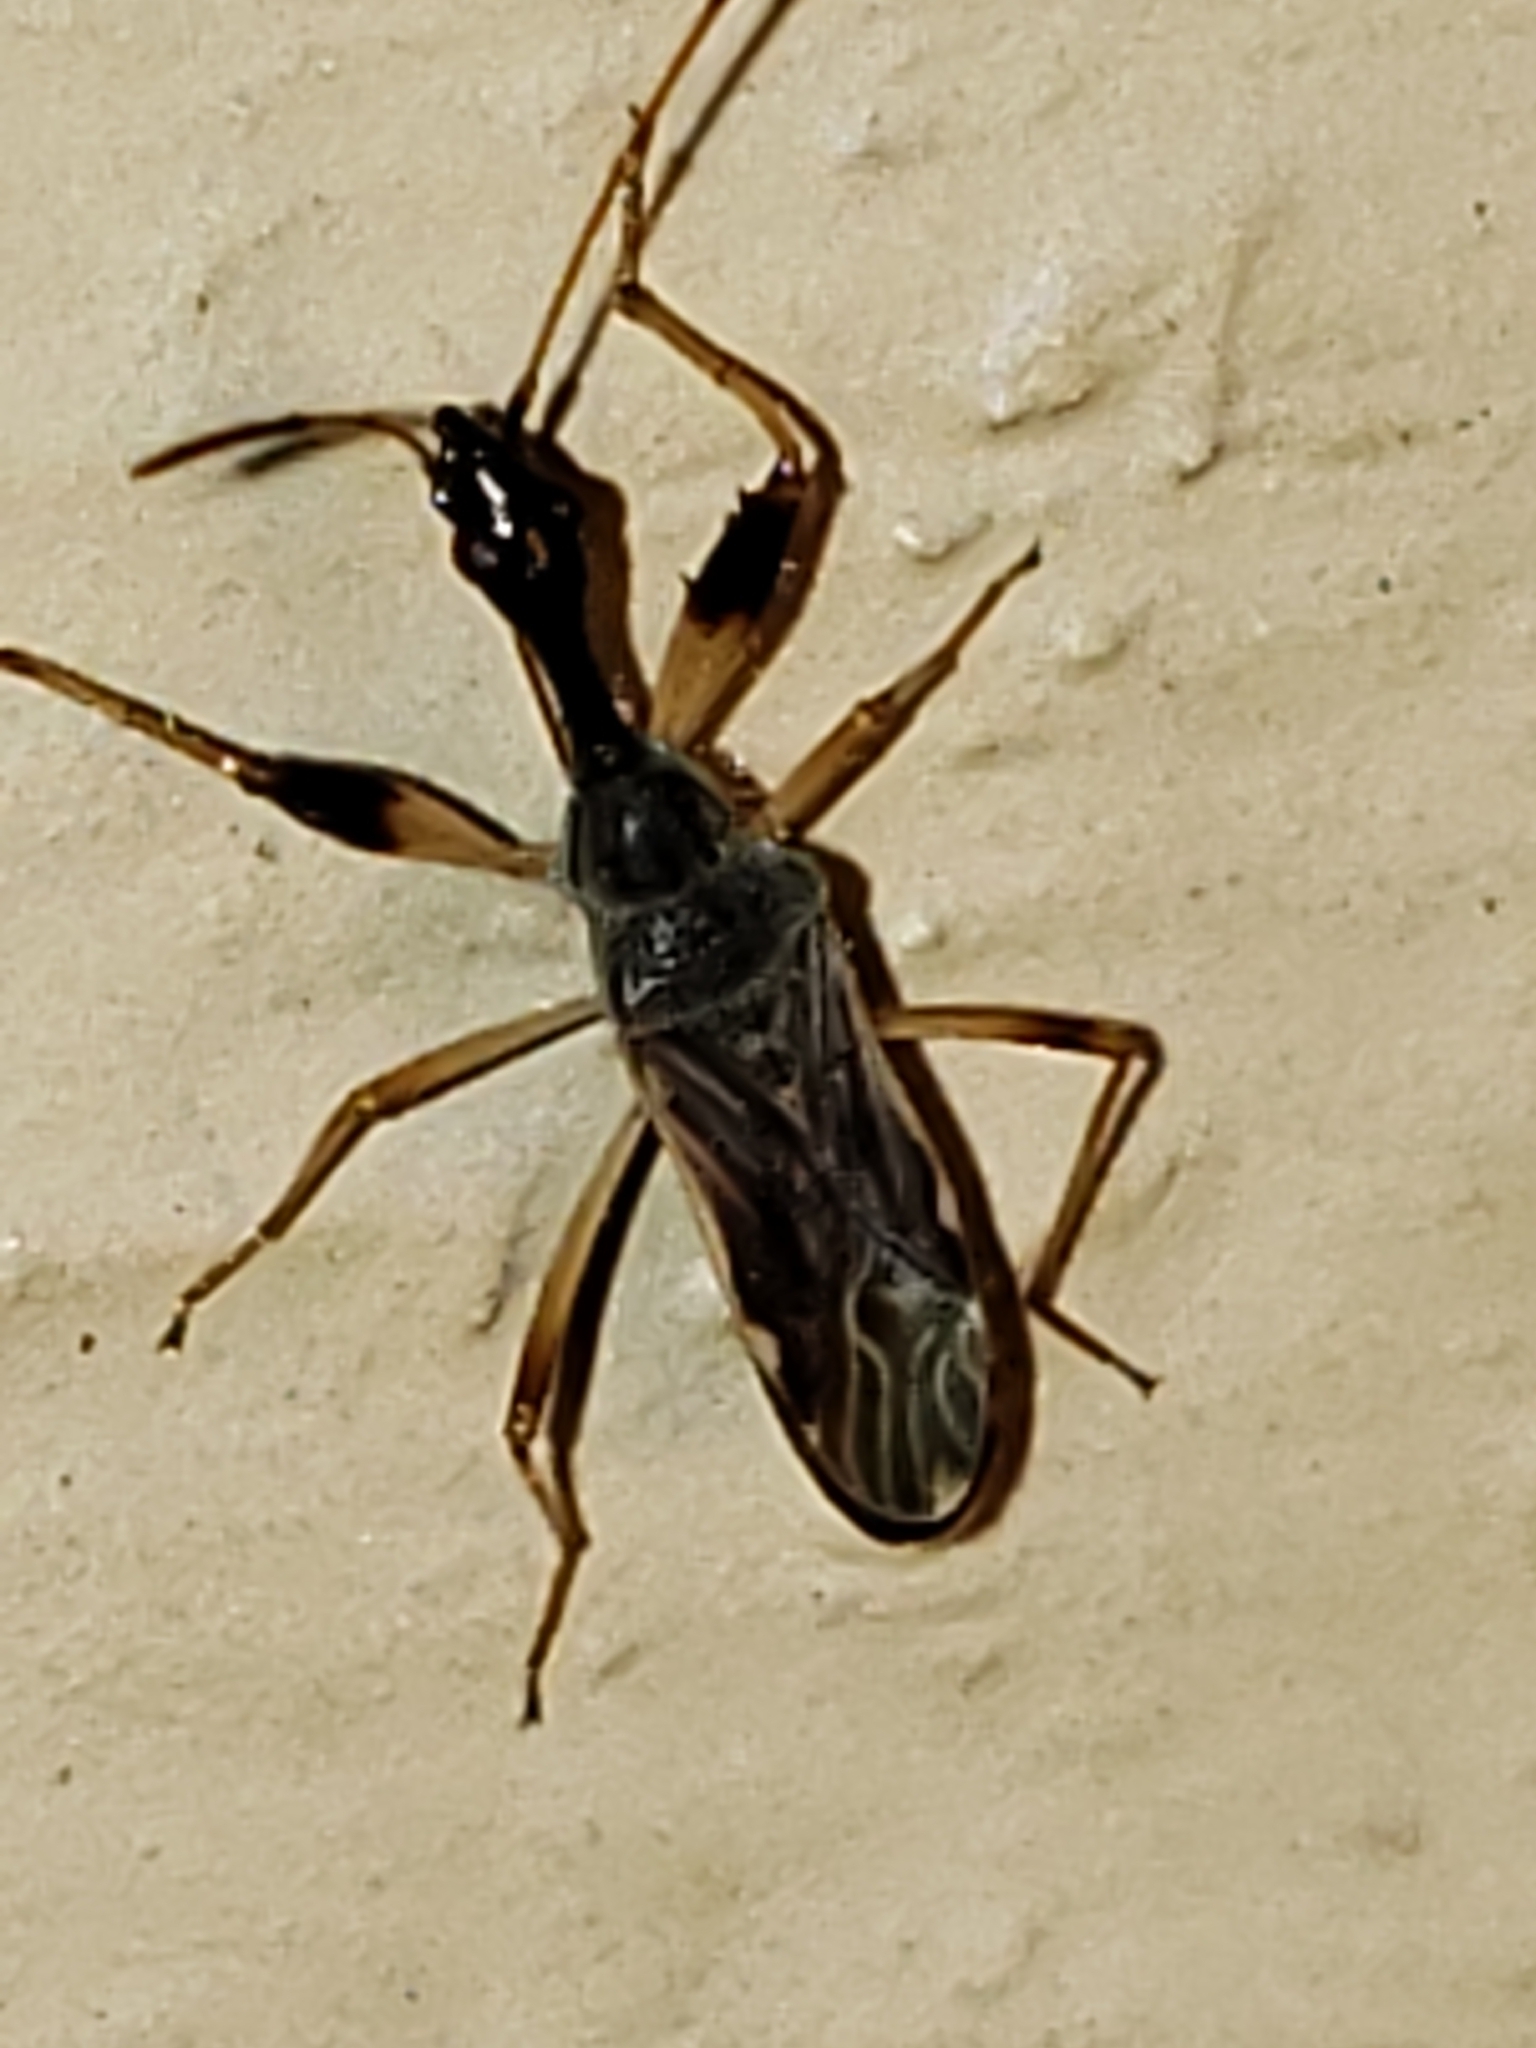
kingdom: Animalia
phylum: Arthropoda
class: Insecta
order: Hemiptera
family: Rhyparochromidae
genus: Myodocha
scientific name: Myodocha serripes
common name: Long-necked seed bug
